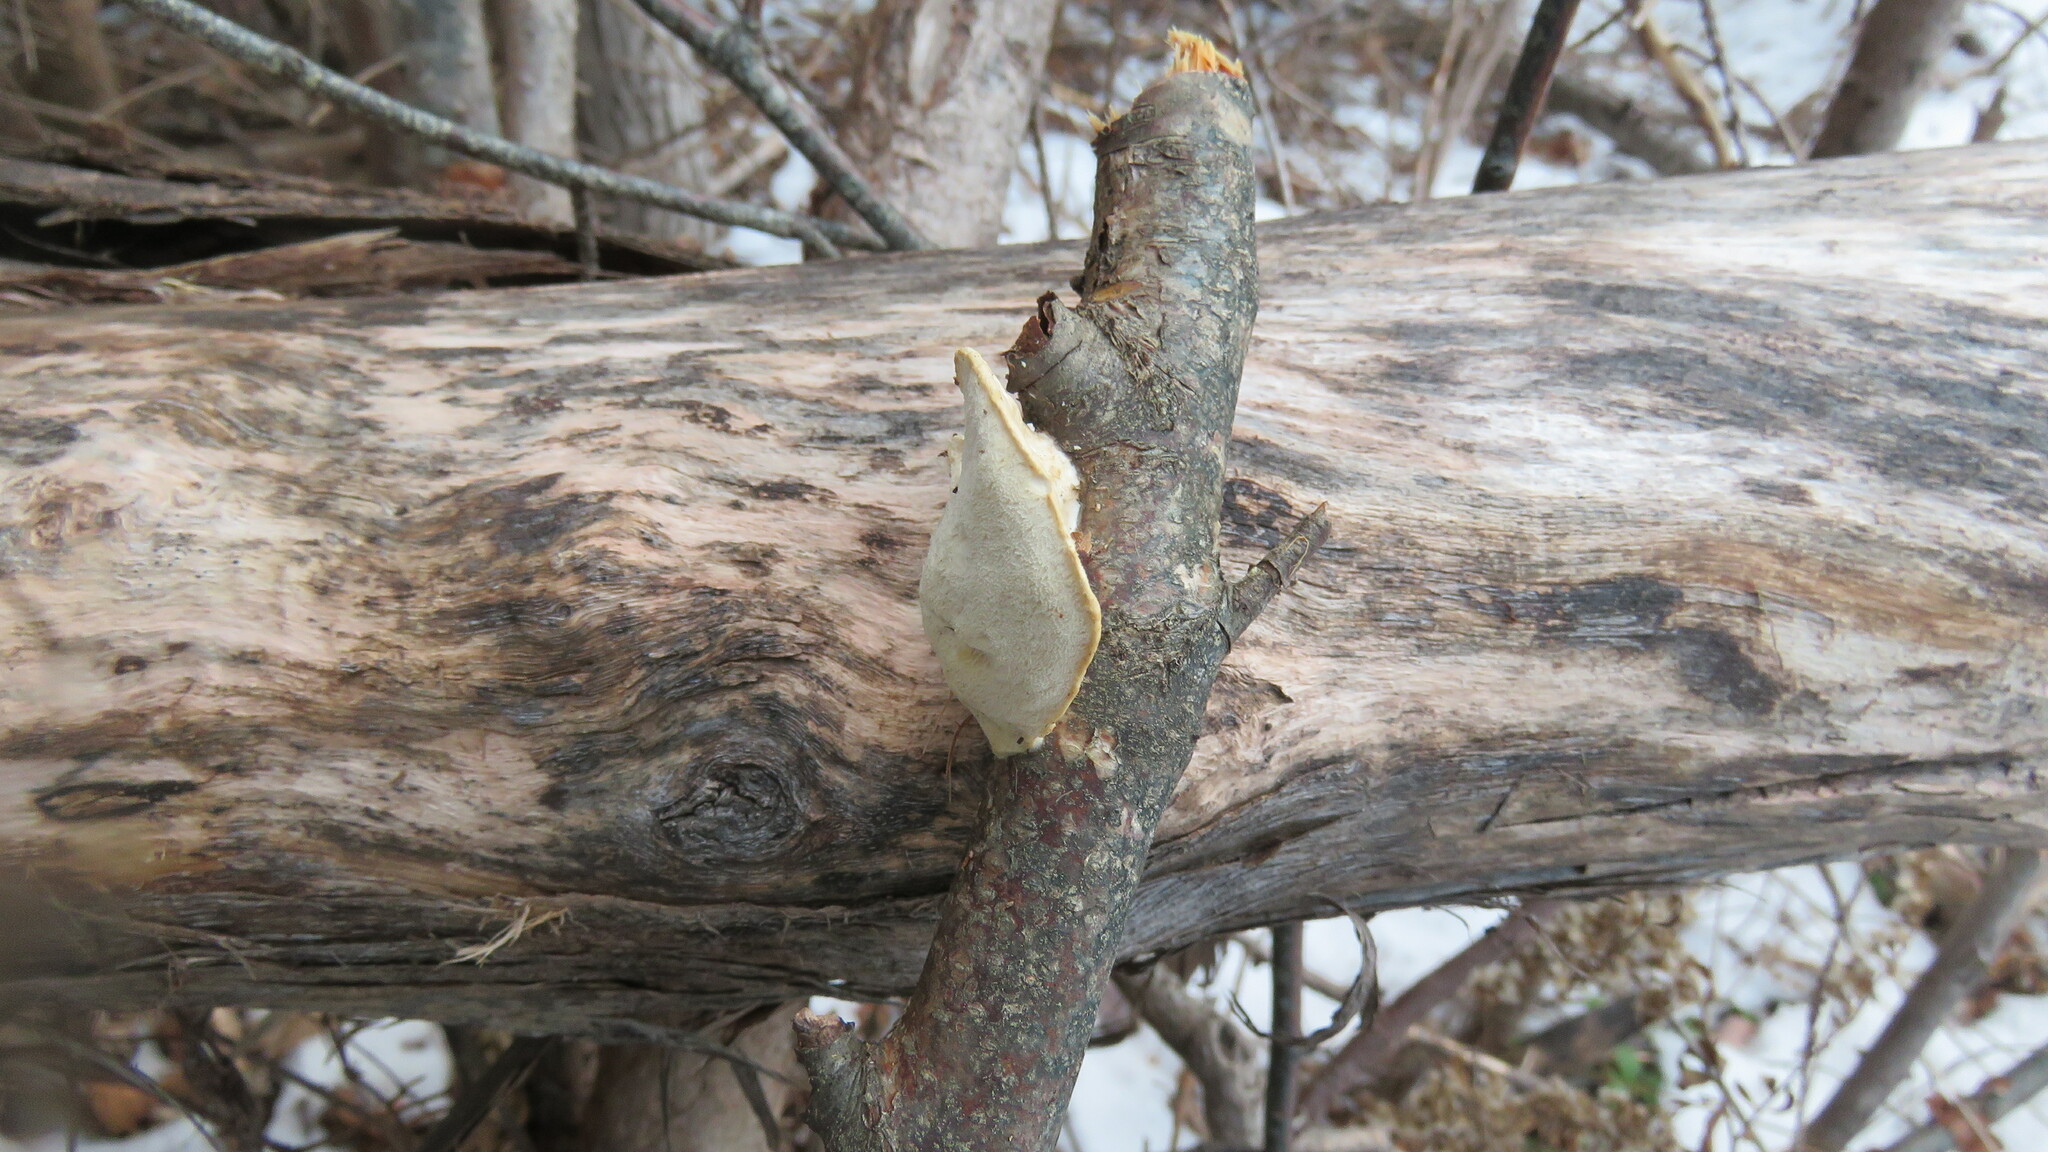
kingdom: Fungi
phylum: Basidiomycota
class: Agaricomycetes
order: Polyporales
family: Incrustoporiaceae
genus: Tyromyces
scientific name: Tyromyces chioneus
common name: White cheese polypore
